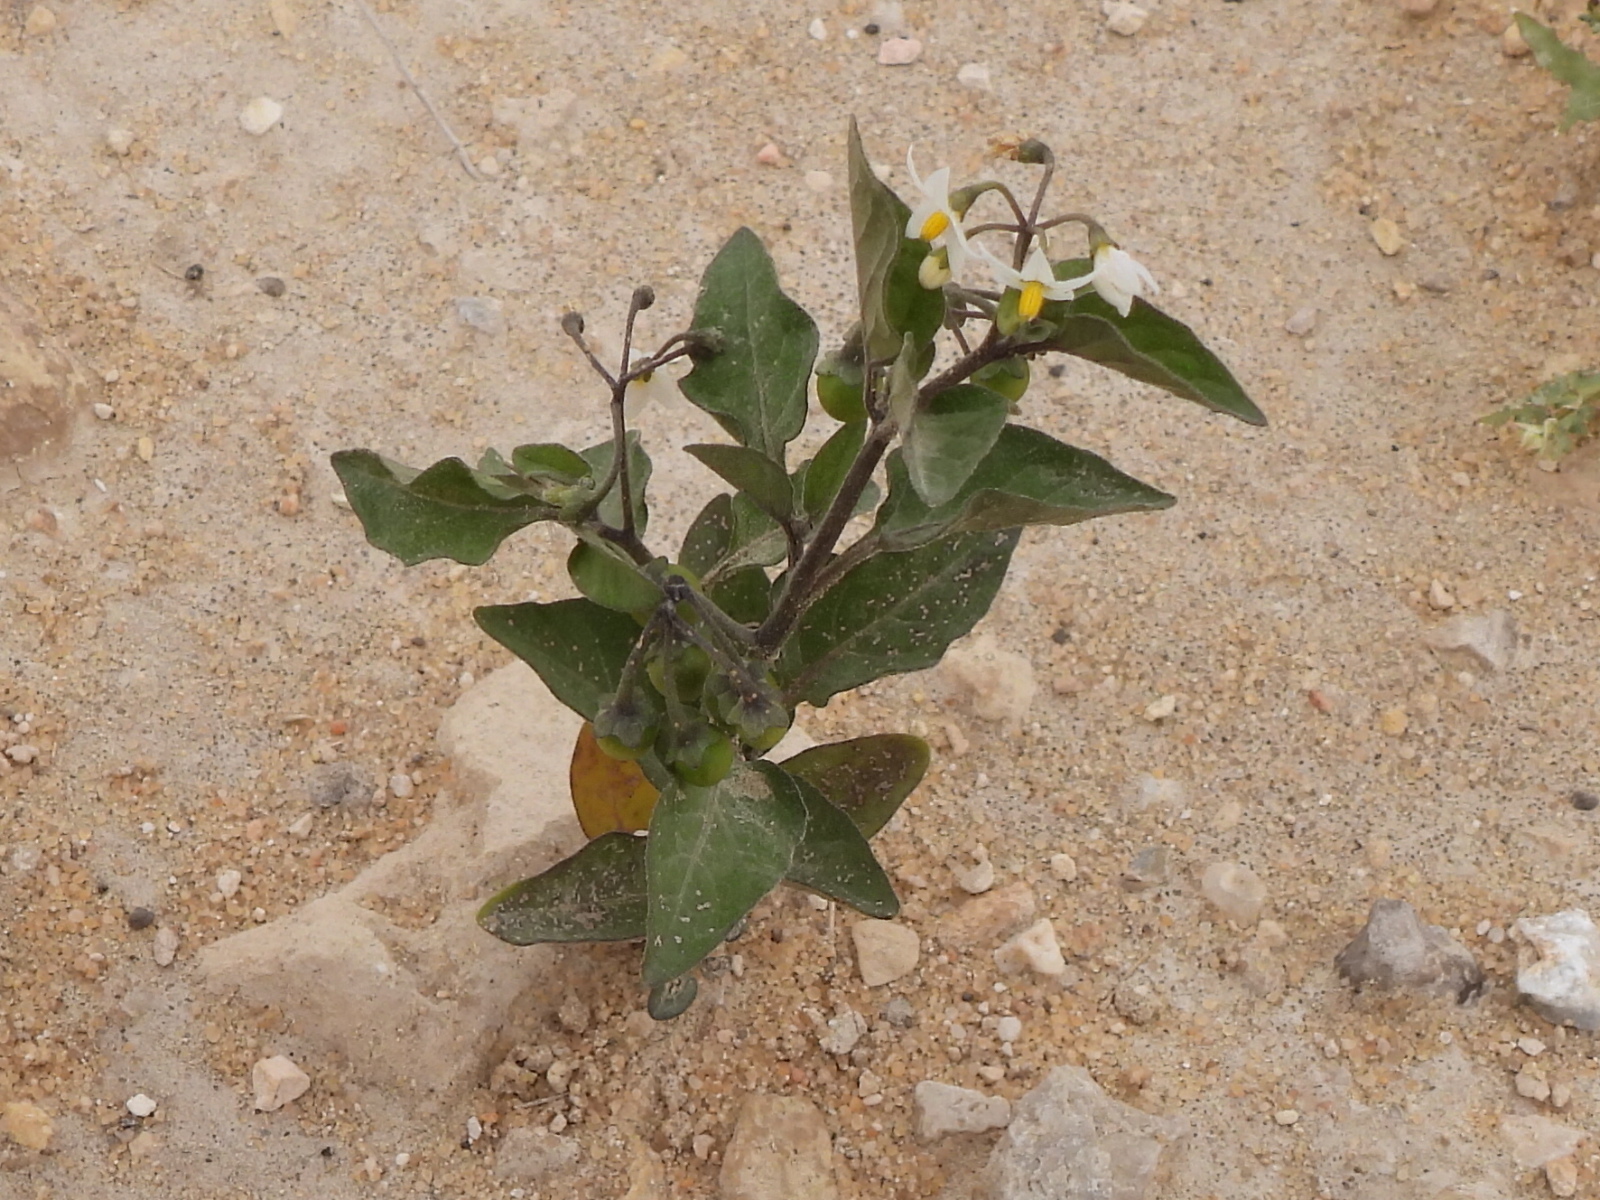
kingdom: Plantae
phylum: Tracheophyta
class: Magnoliopsida
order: Solanales
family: Solanaceae
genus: Solanum
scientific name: Solanum nigrum
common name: Black nightshade
